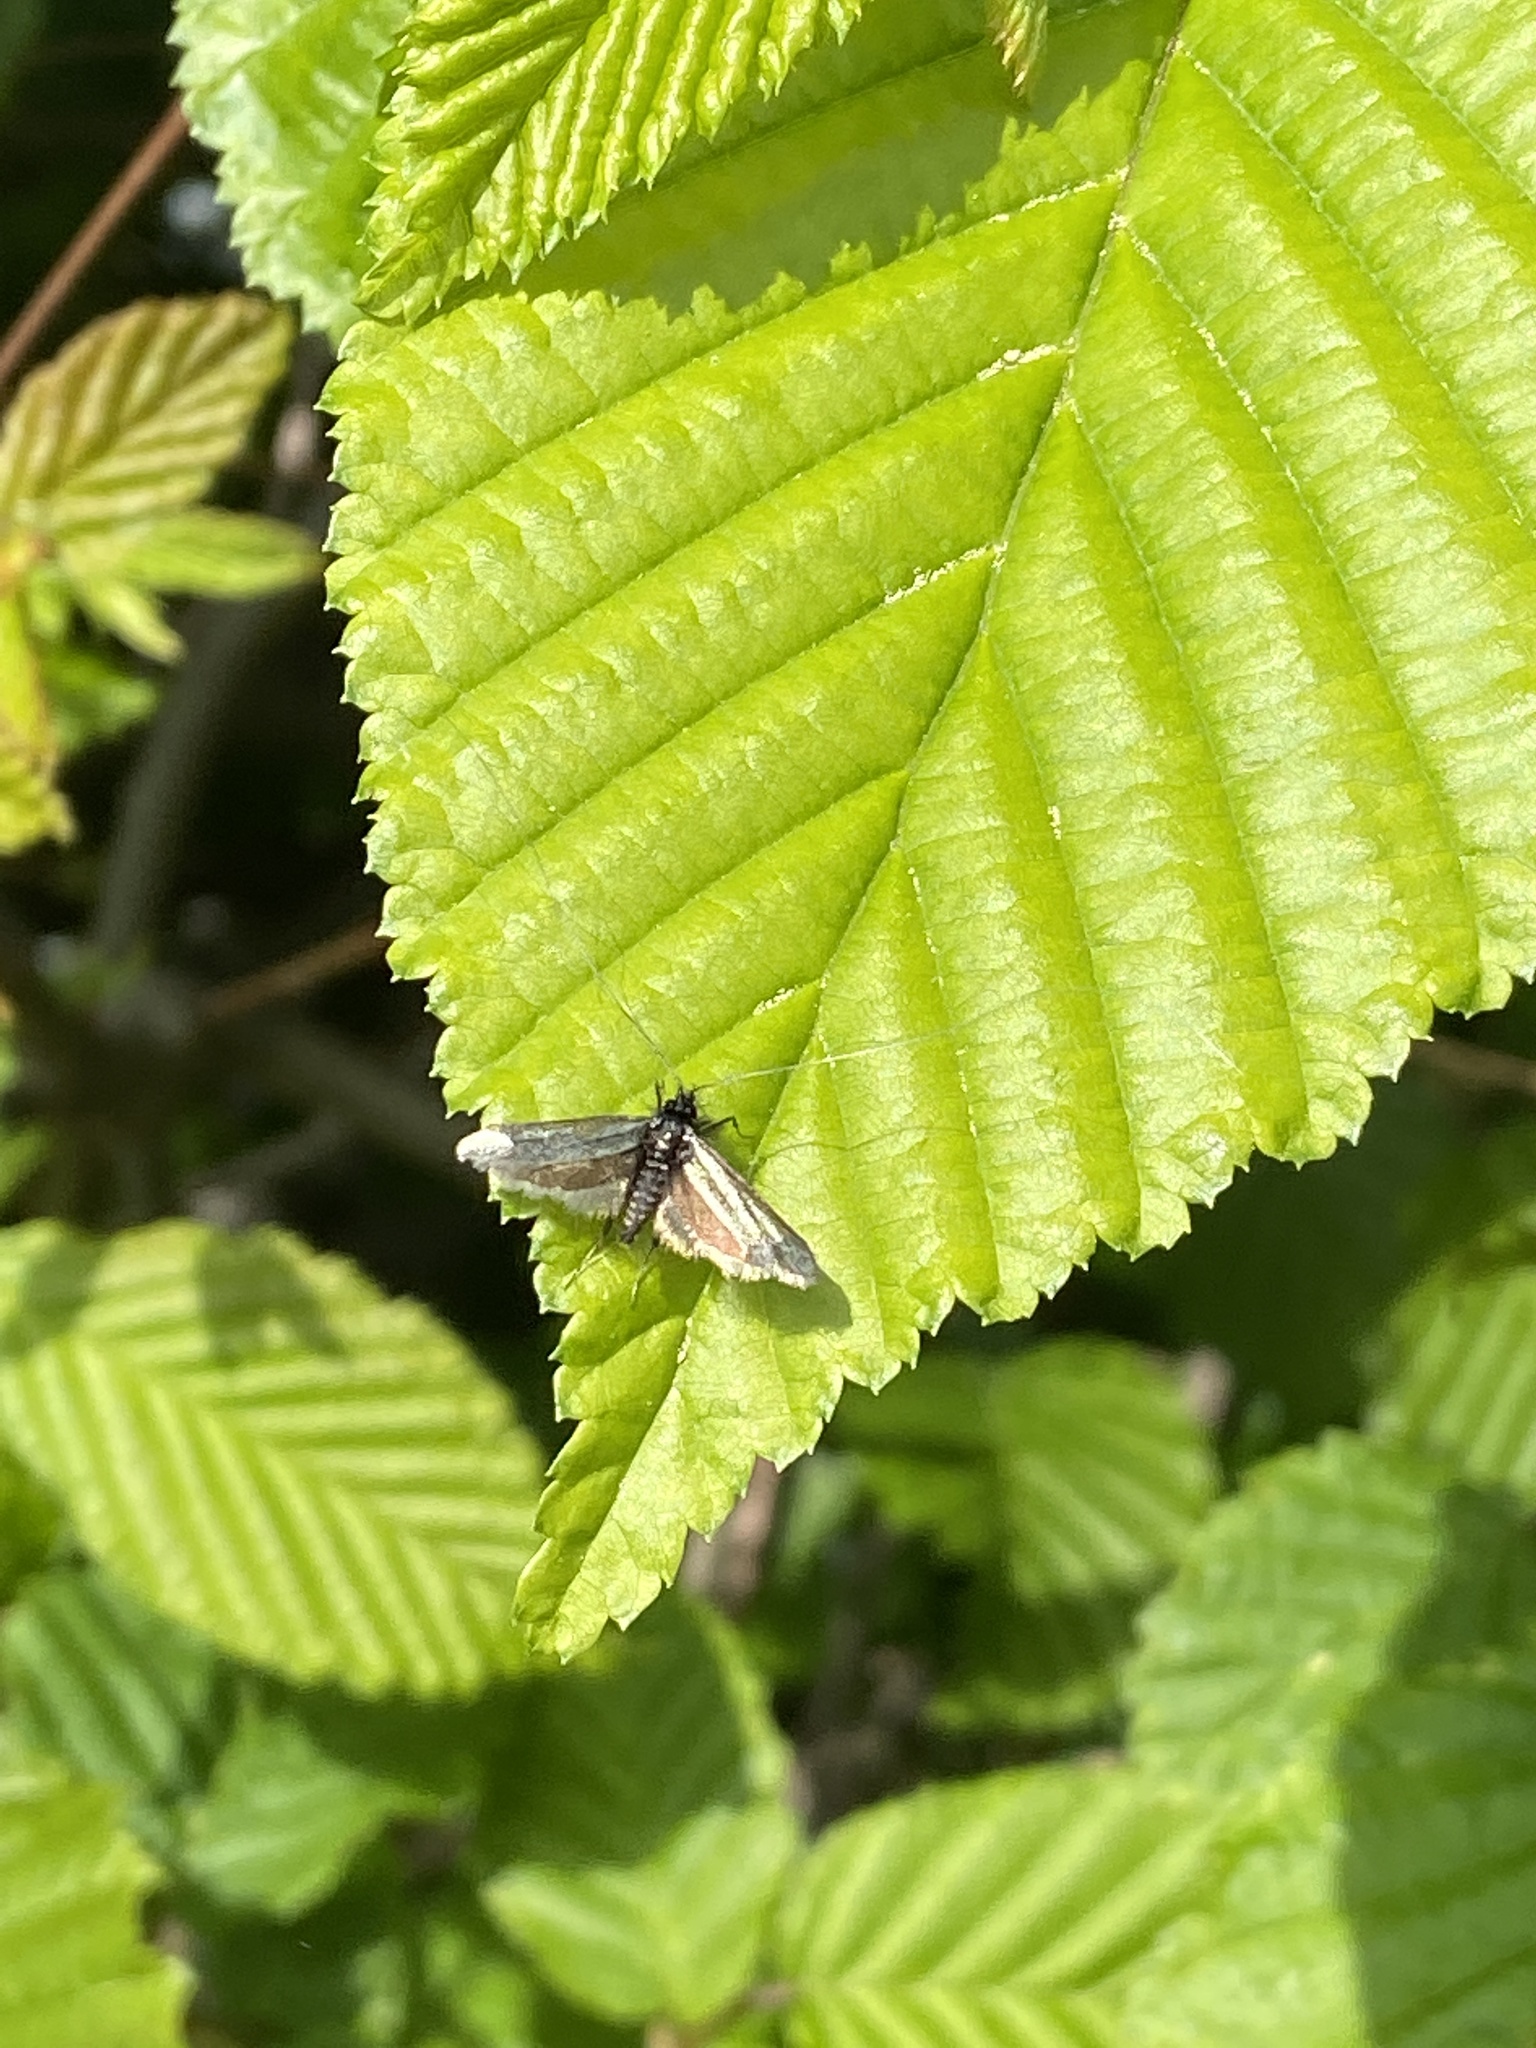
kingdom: Animalia
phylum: Arthropoda
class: Insecta
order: Lepidoptera
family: Adelidae
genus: Adela
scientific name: Adela viridella
